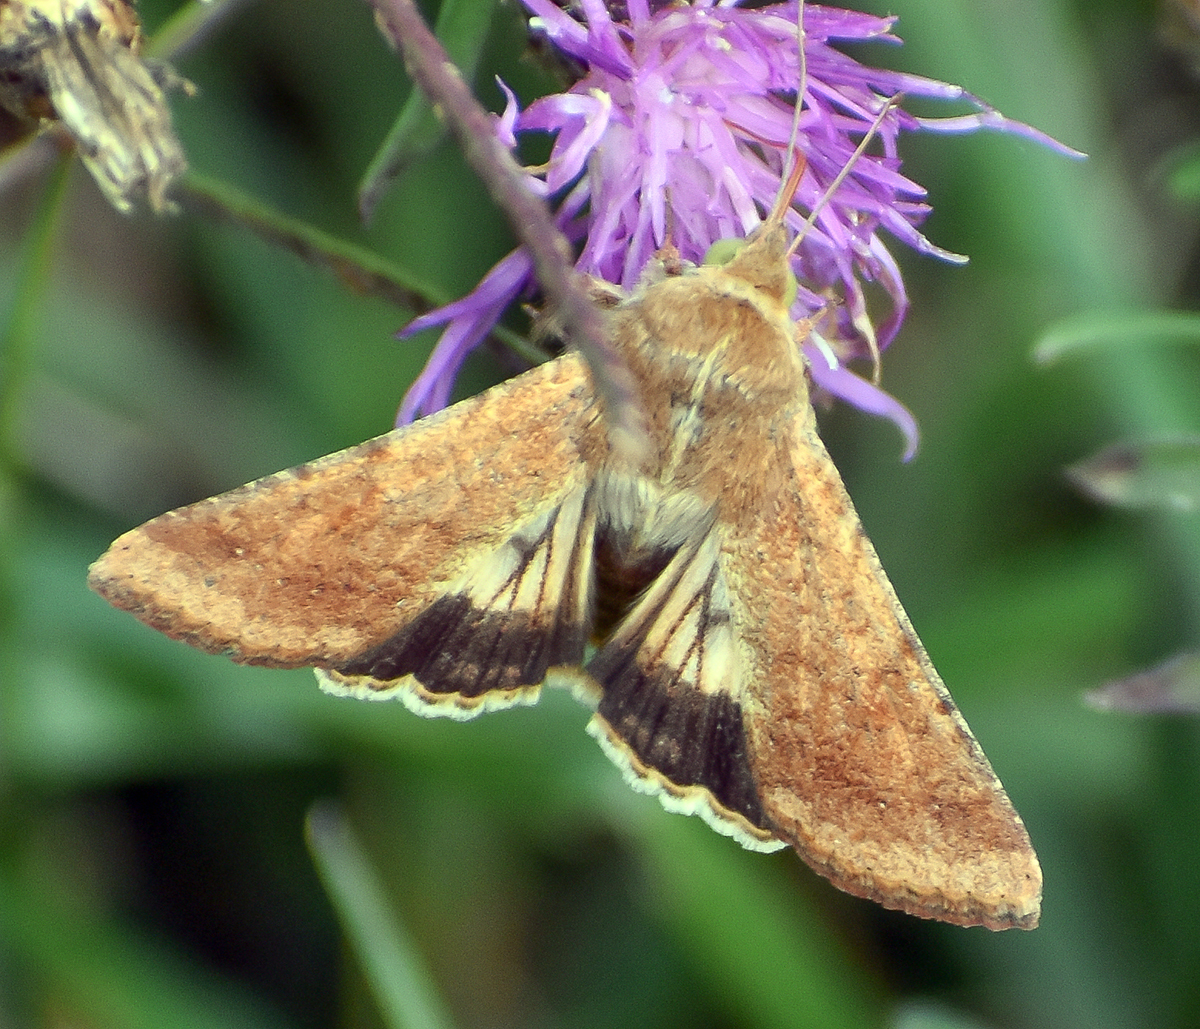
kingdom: Animalia
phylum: Arthropoda
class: Insecta
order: Lepidoptera
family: Noctuidae
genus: Helicoverpa
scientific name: Helicoverpa armigera
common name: Cotton bollworm
